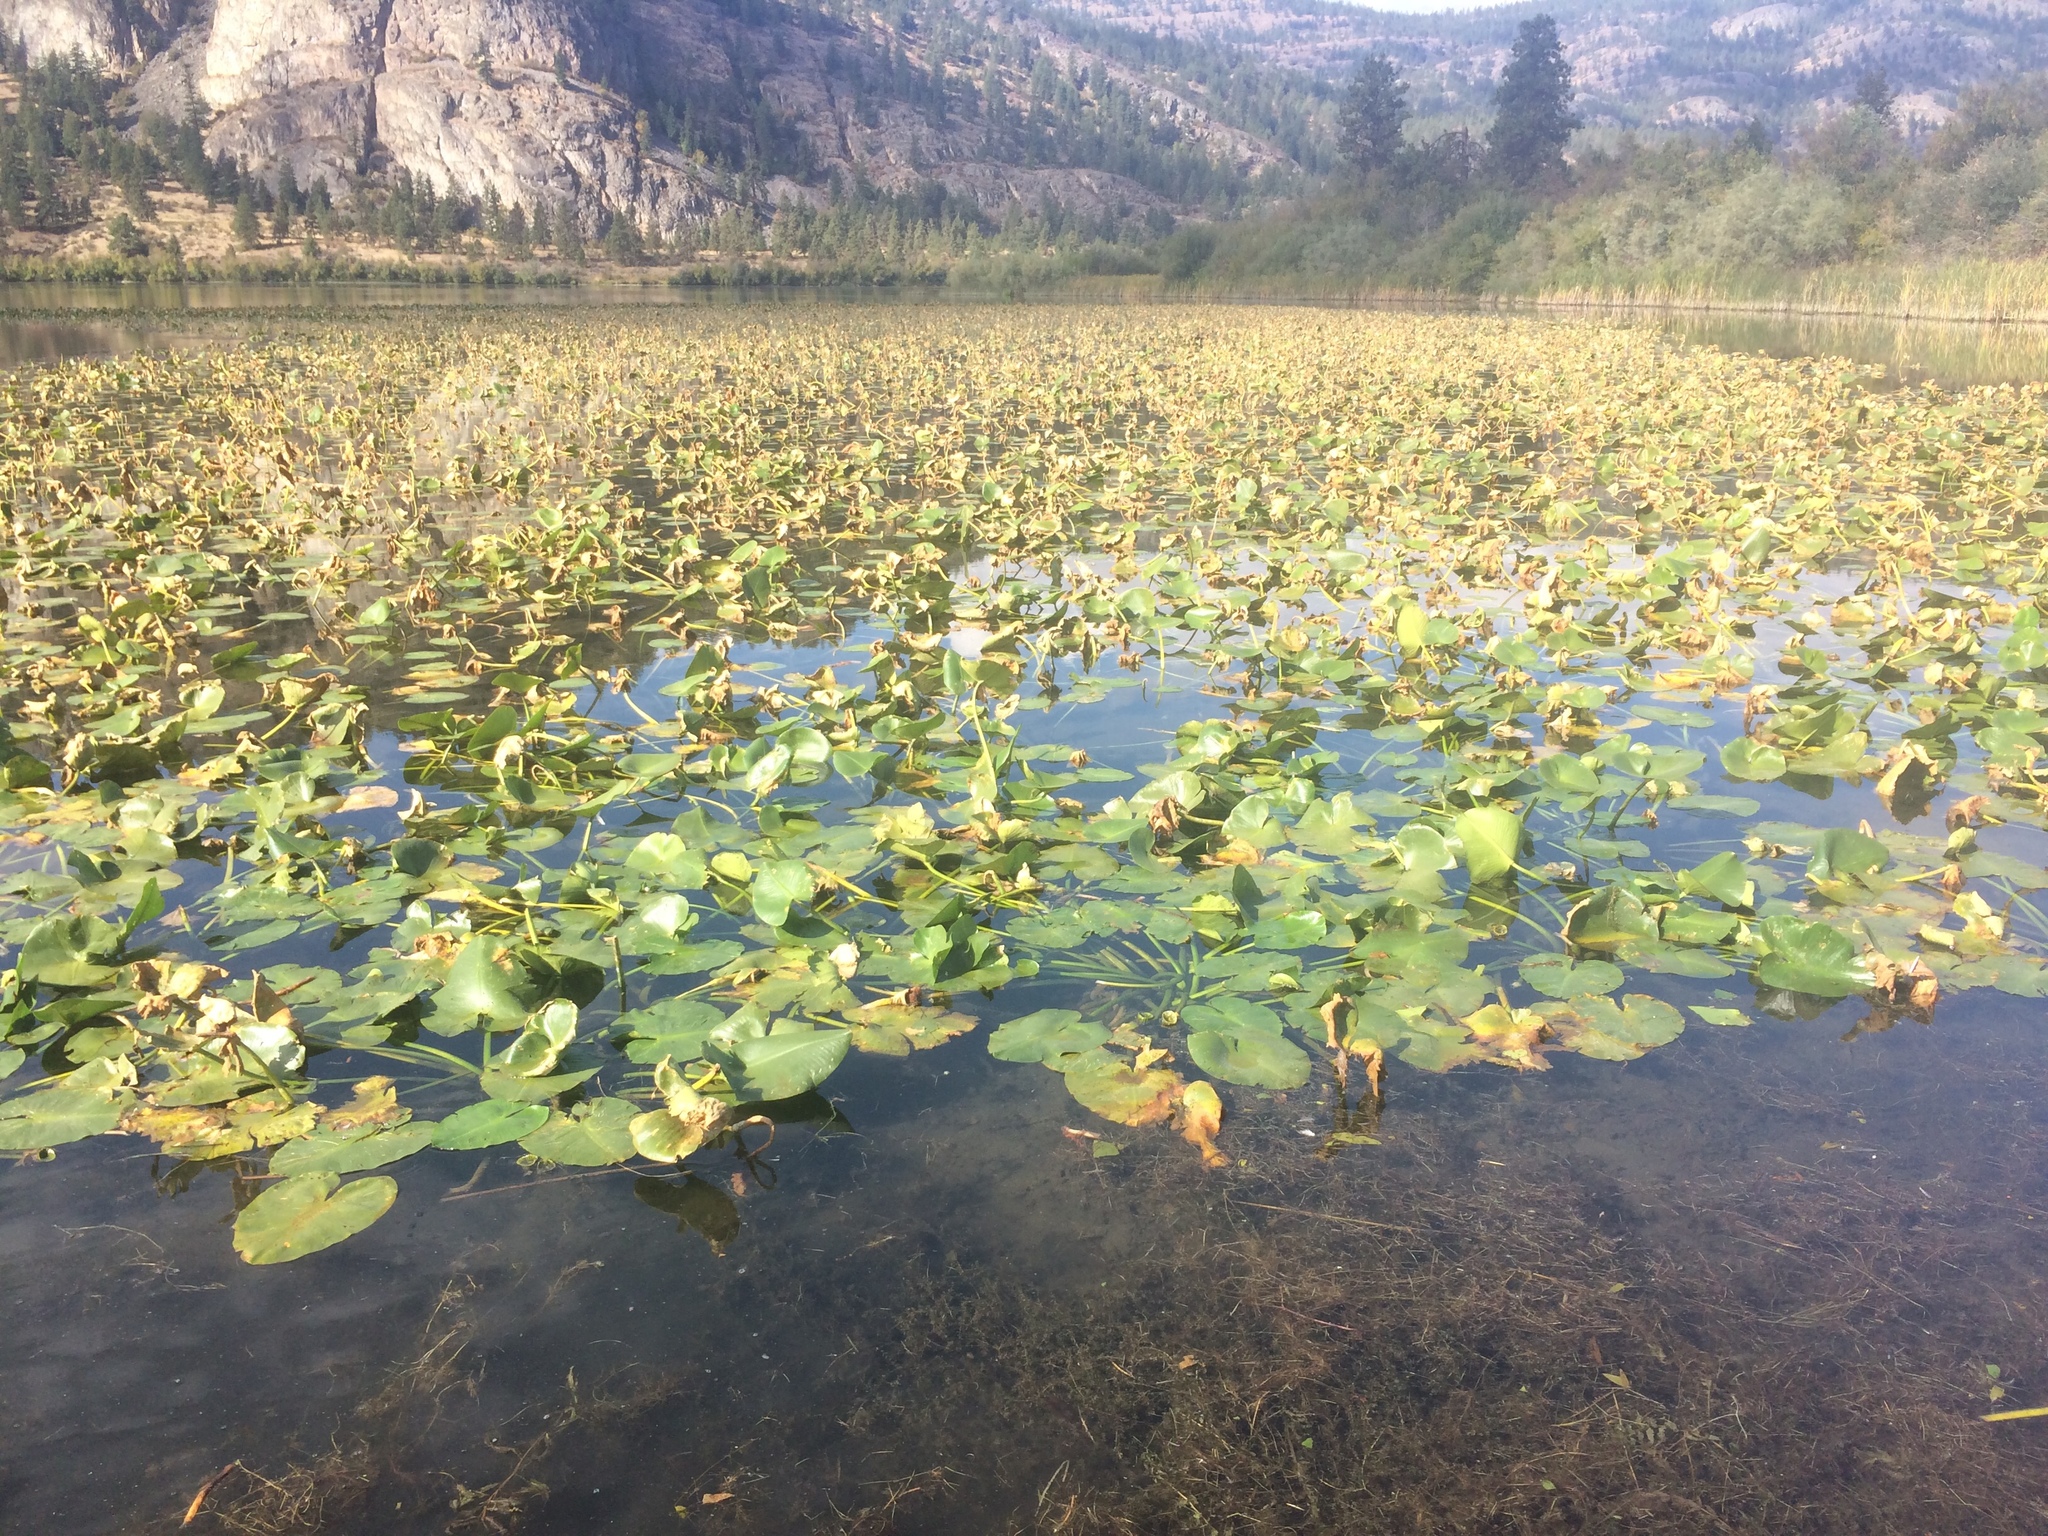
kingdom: Plantae
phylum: Tracheophyta
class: Magnoliopsida
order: Nymphaeales
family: Nymphaeaceae
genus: Nuphar
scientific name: Nuphar polysepala
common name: Rocky mountain cow-lily
